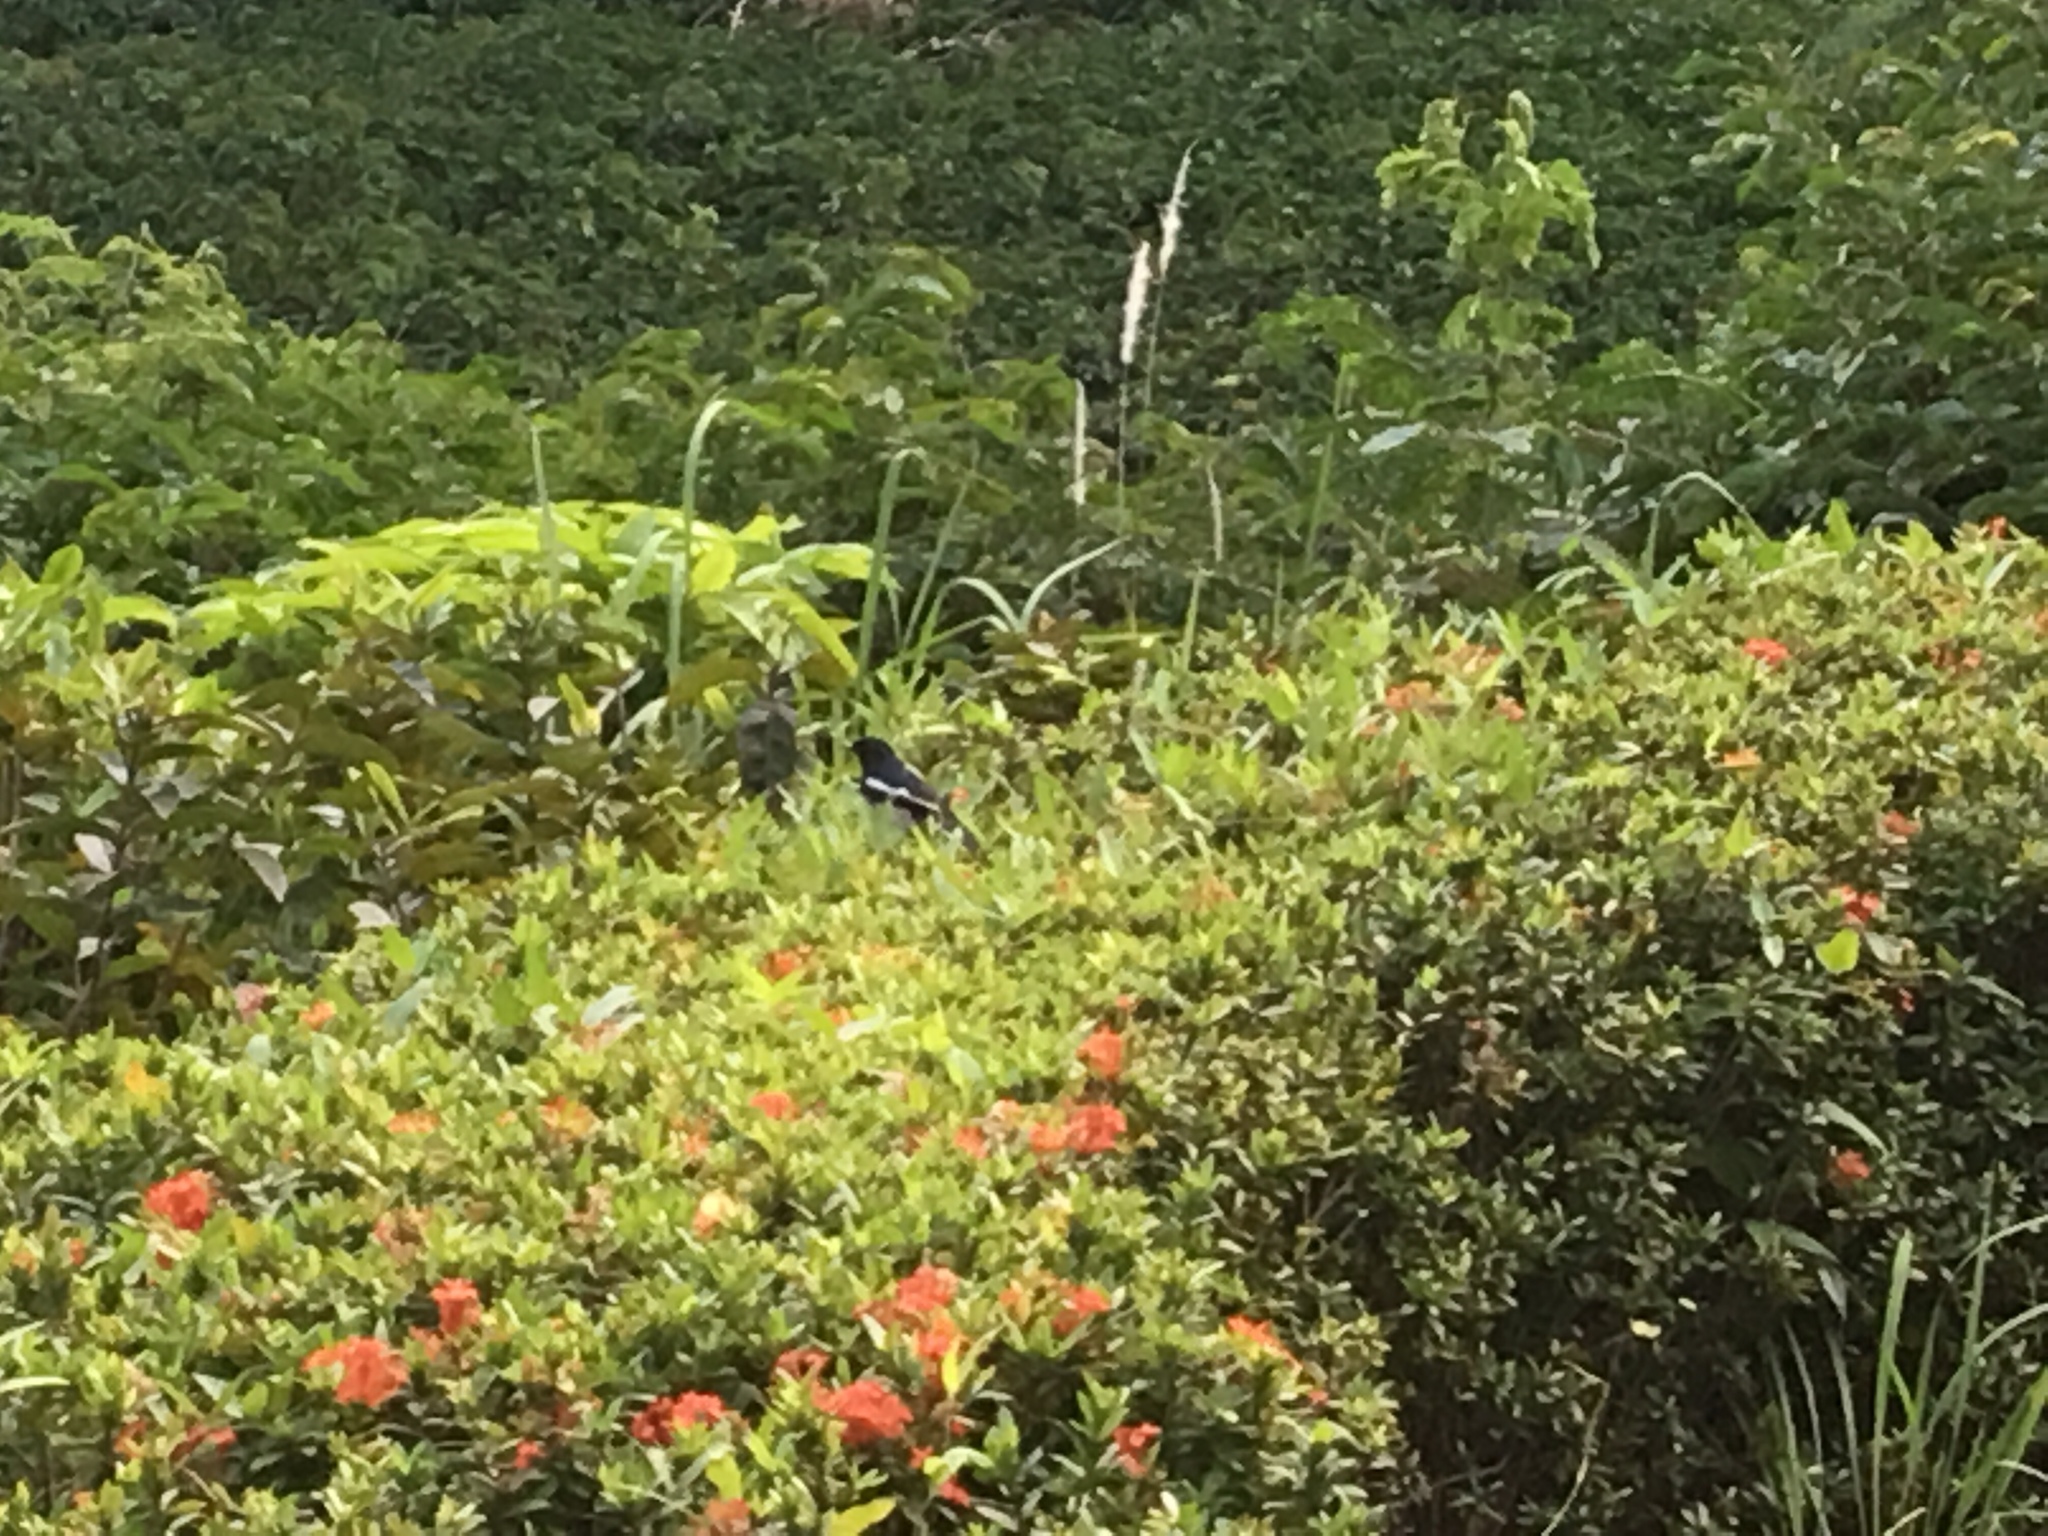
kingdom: Animalia
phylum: Chordata
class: Aves
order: Passeriformes
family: Muscicapidae
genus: Copsychus
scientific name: Copsychus saularis
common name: Oriental magpie-robin
